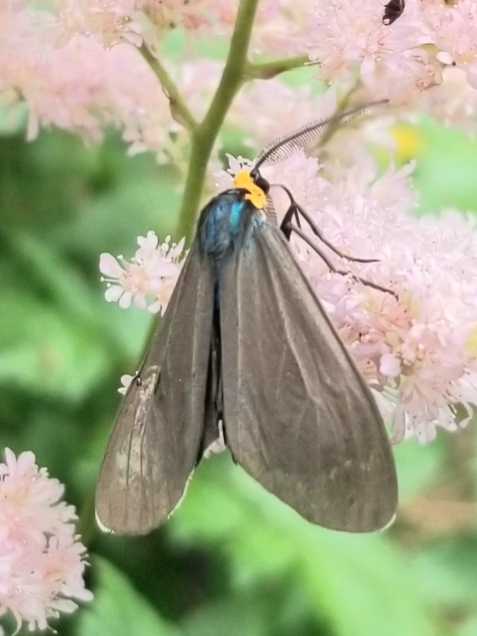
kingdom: Animalia
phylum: Arthropoda
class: Insecta
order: Lepidoptera
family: Erebidae
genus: Ctenucha
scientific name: Ctenucha virginica
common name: Virginia ctenucha moth
